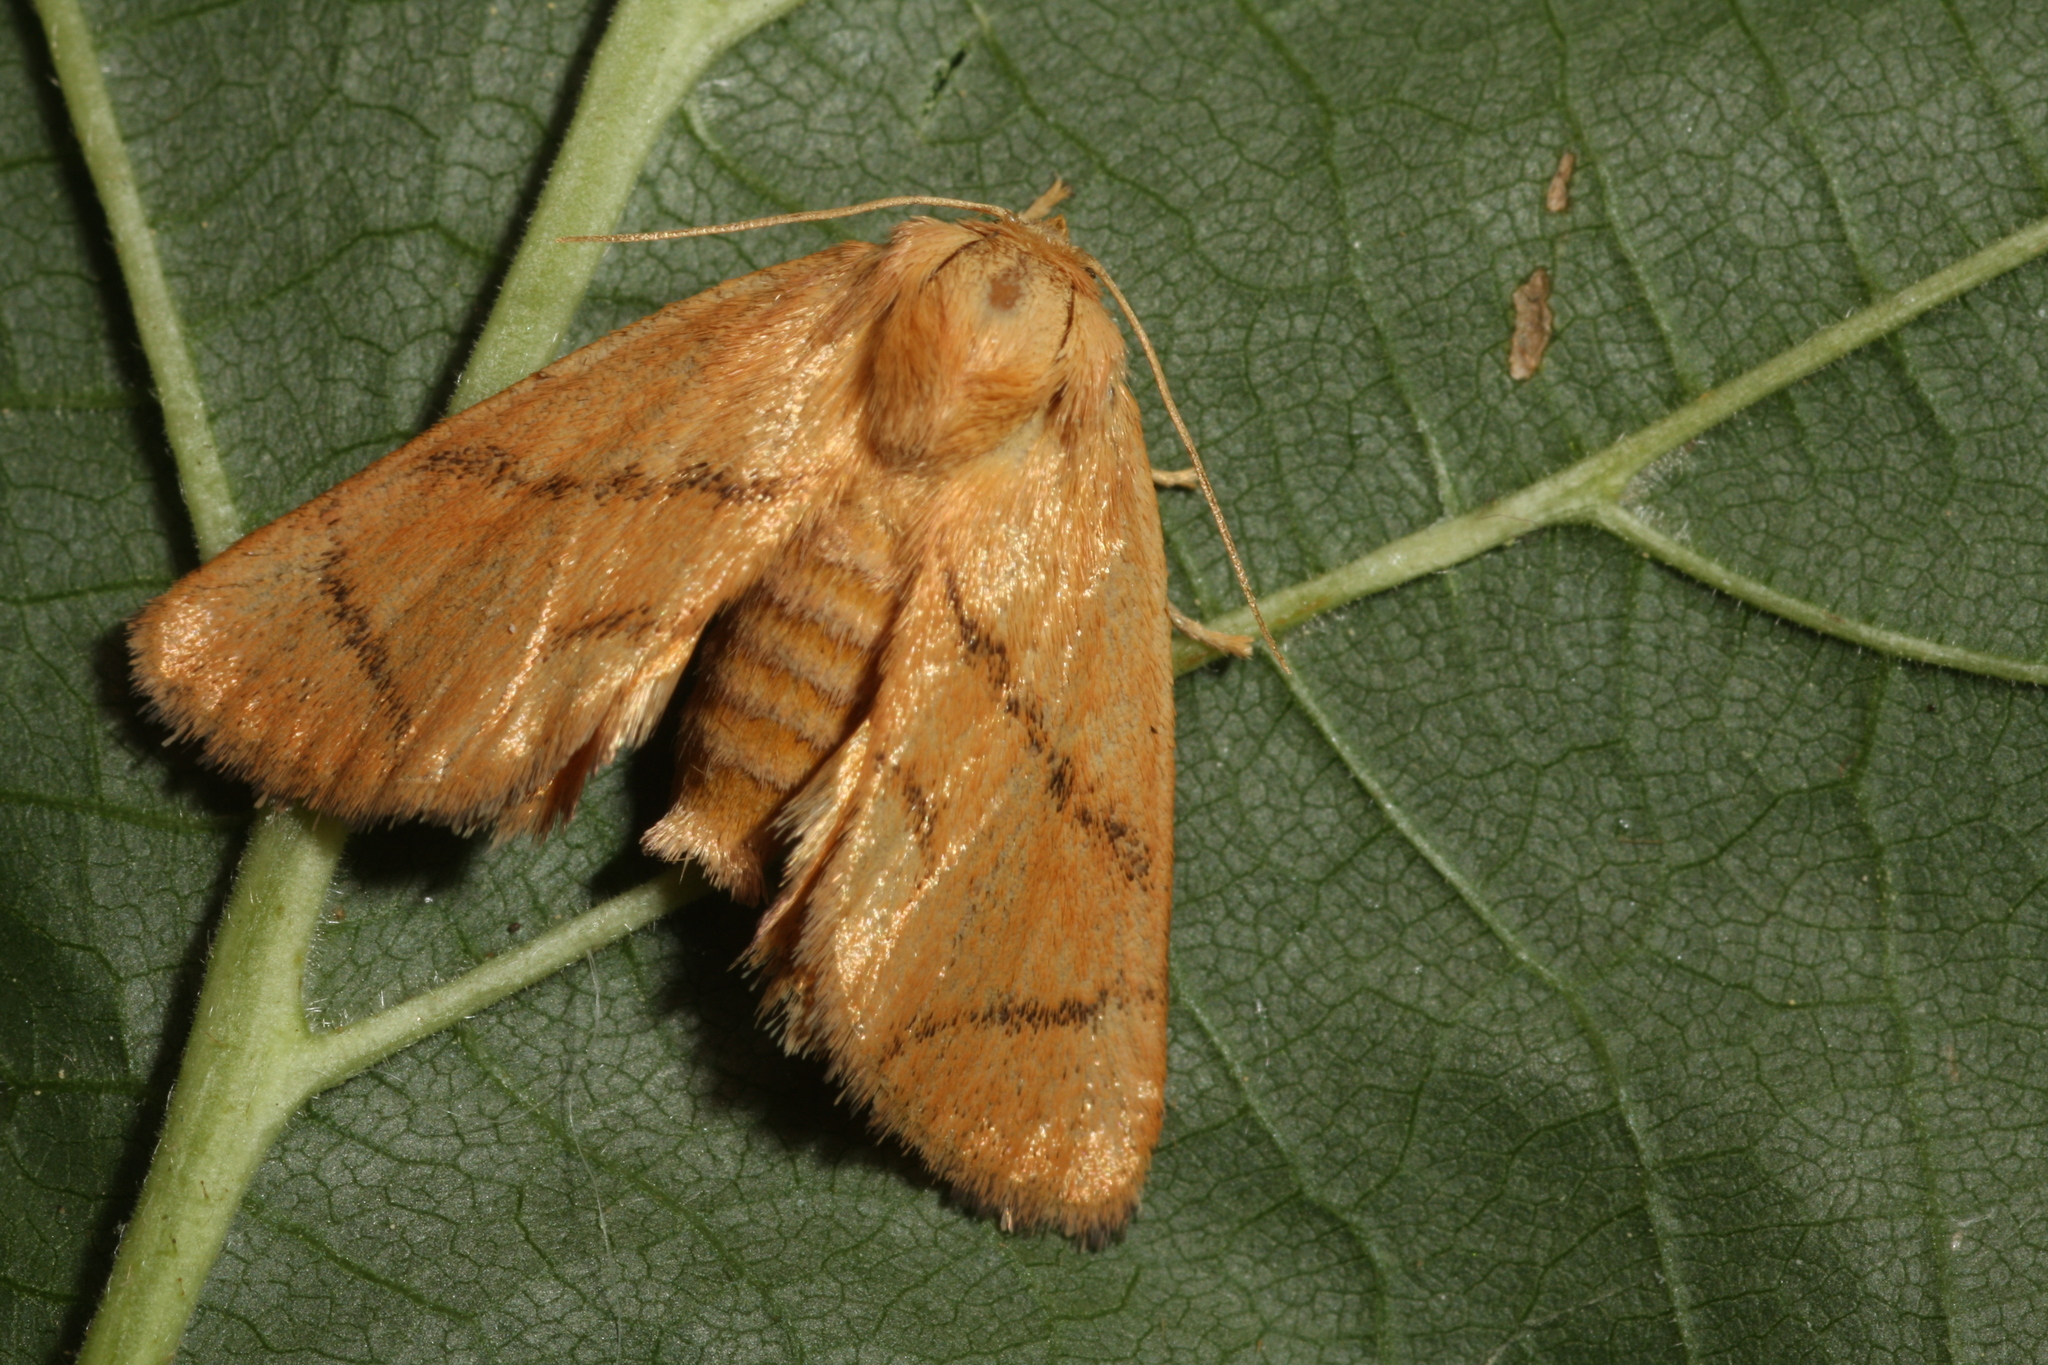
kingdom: Animalia
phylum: Arthropoda
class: Insecta
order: Lepidoptera
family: Limacodidae
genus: Apoda
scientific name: Apoda limacodes
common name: Festoon
